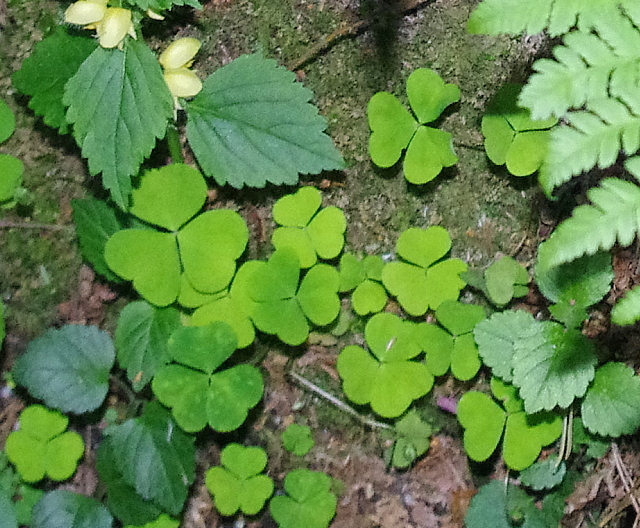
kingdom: Plantae
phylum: Tracheophyta
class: Magnoliopsida
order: Oxalidales
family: Oxalidaceae
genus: Oxalis
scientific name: Oxalis acetosella
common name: Wood-sorrel
